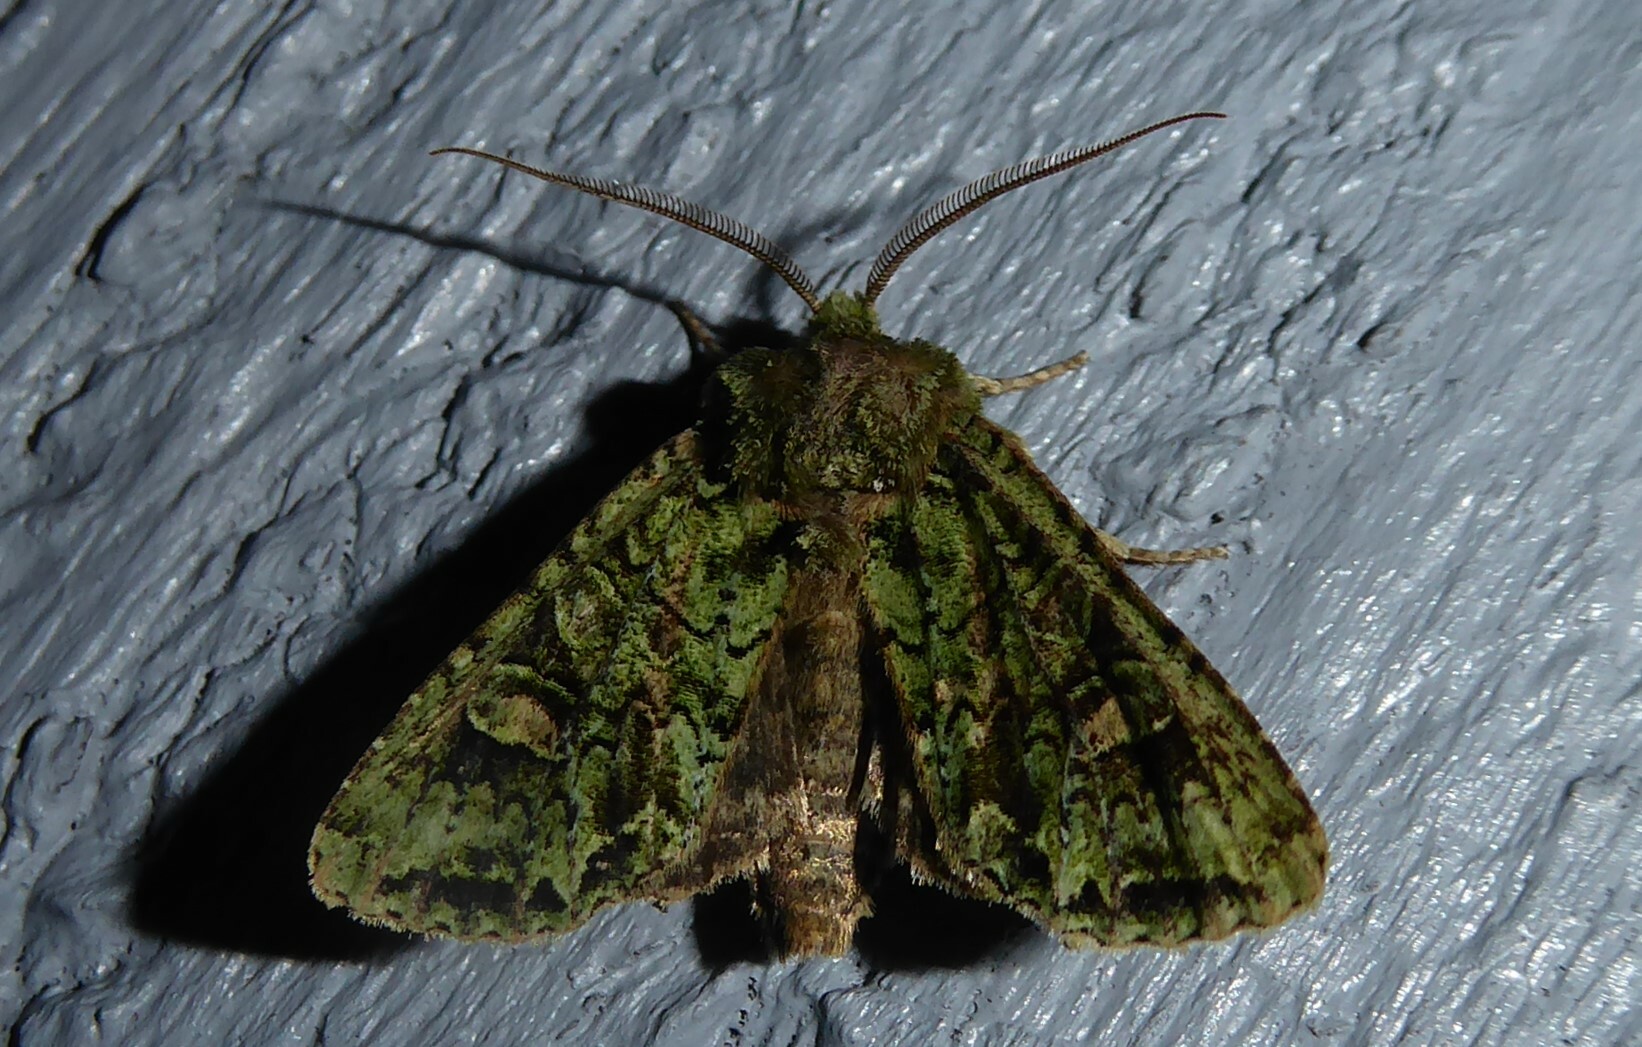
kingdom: Animalia
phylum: Arthropoda
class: Insecta
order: Lepidoptera
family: Noctuidae
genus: Ichneutica
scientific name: Ichneutica
